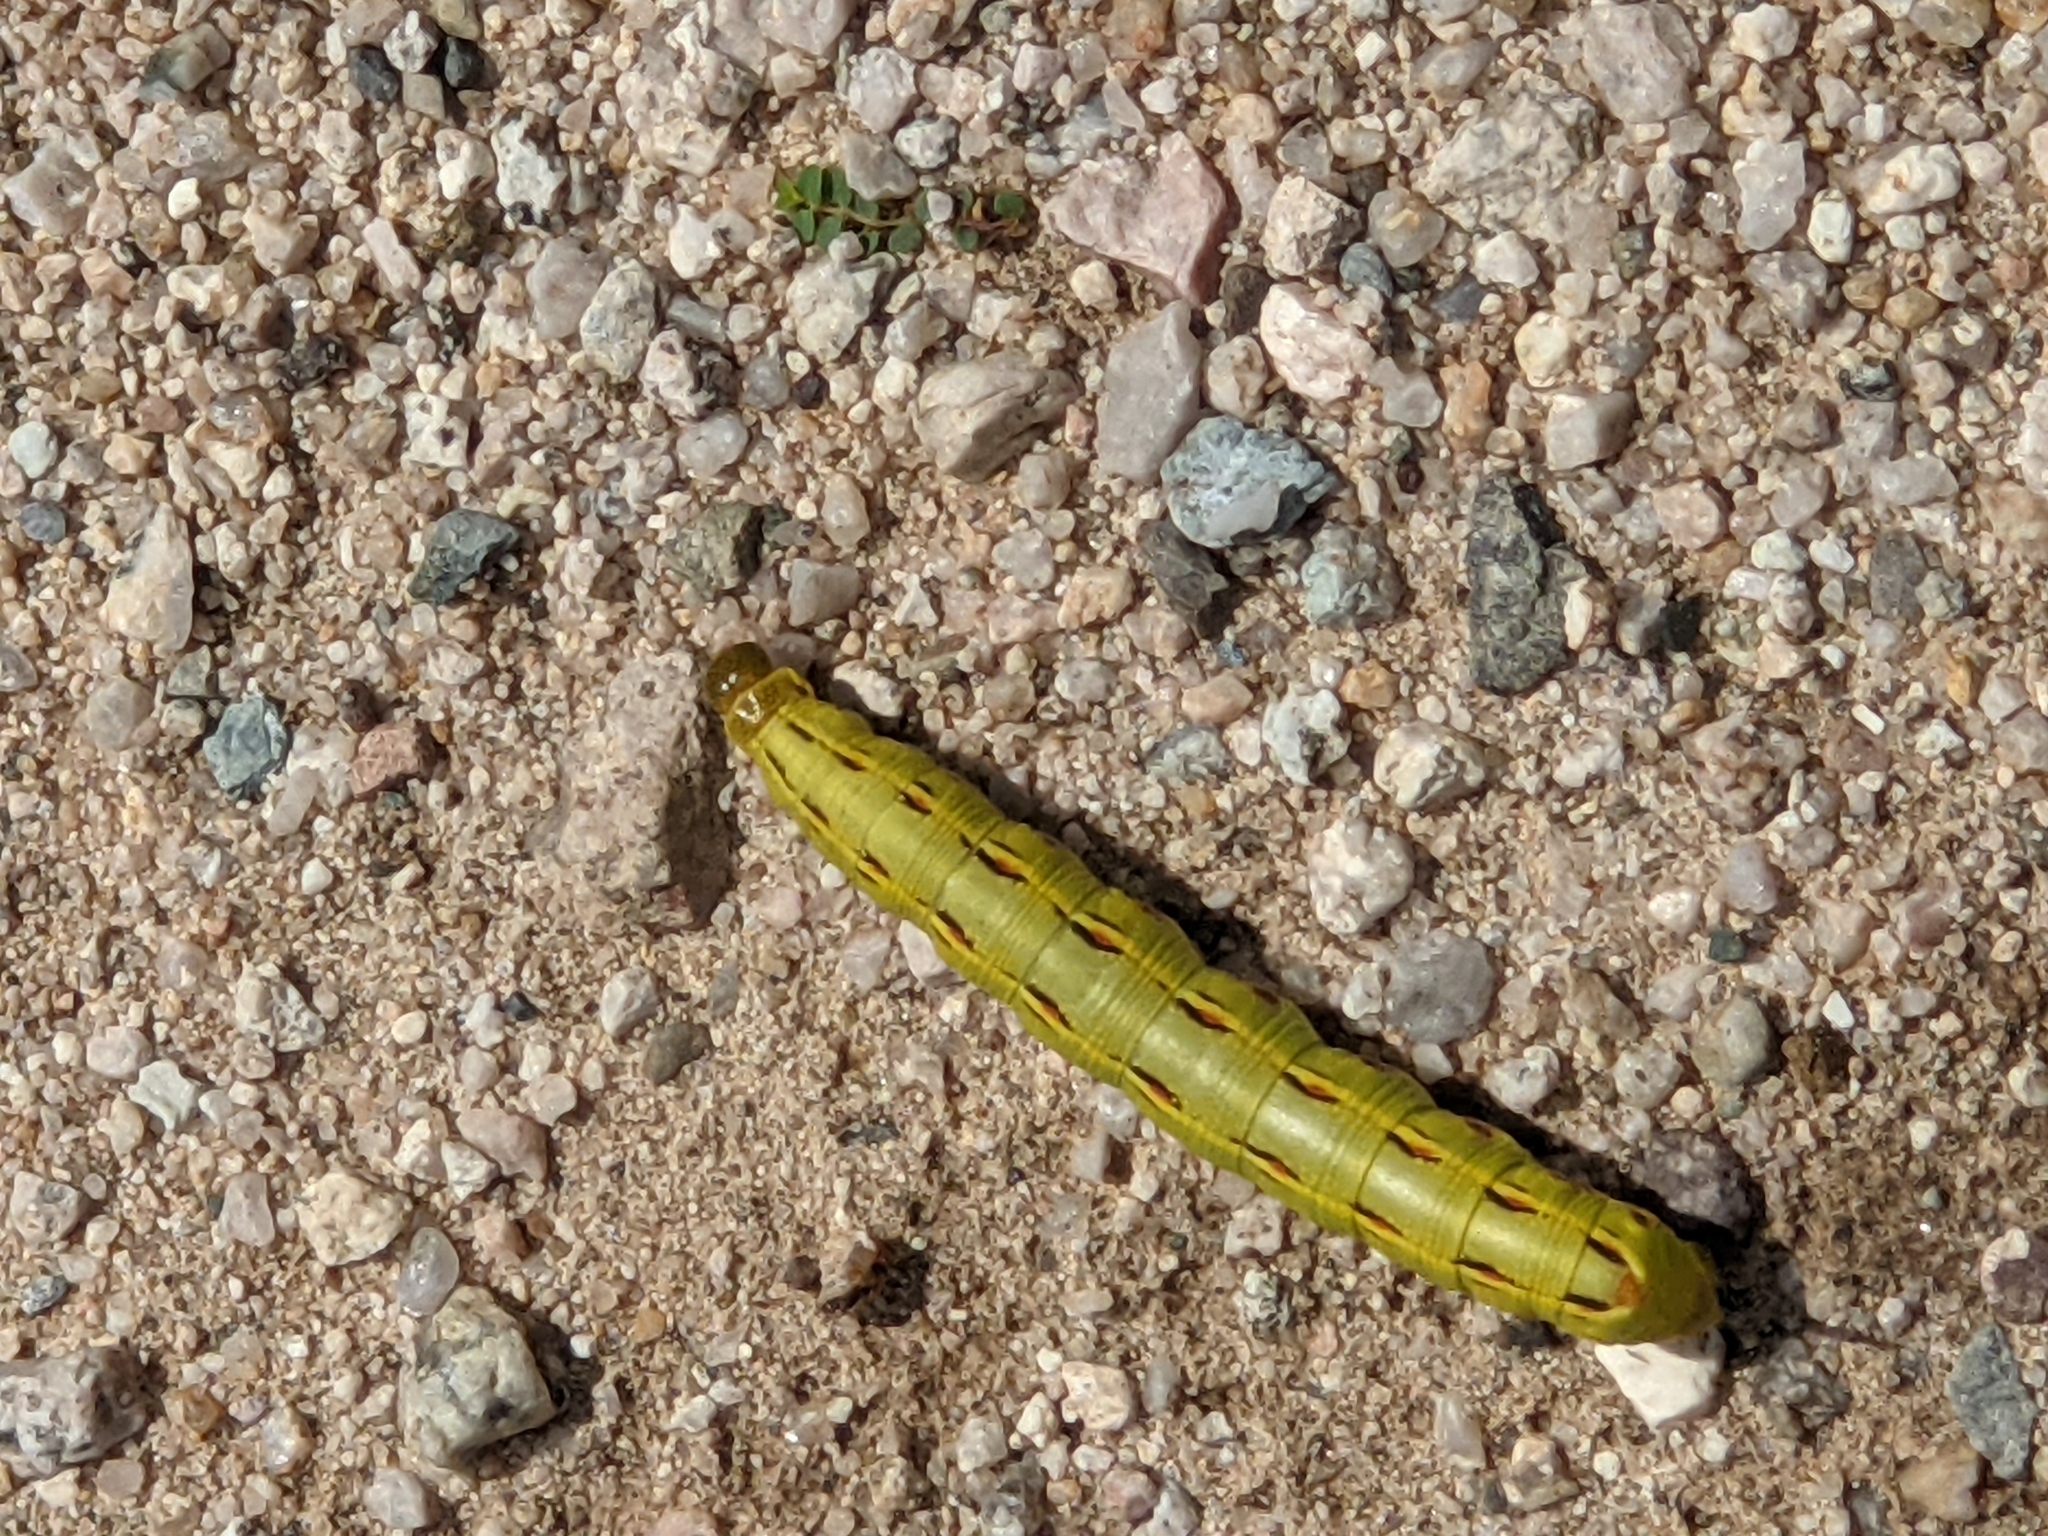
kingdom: Animalia
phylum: Arthropoda
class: Insecta
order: Lepidoptera
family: Sphingidae
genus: Hyles
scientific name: Hyles lineata
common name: White-lined sphinx
